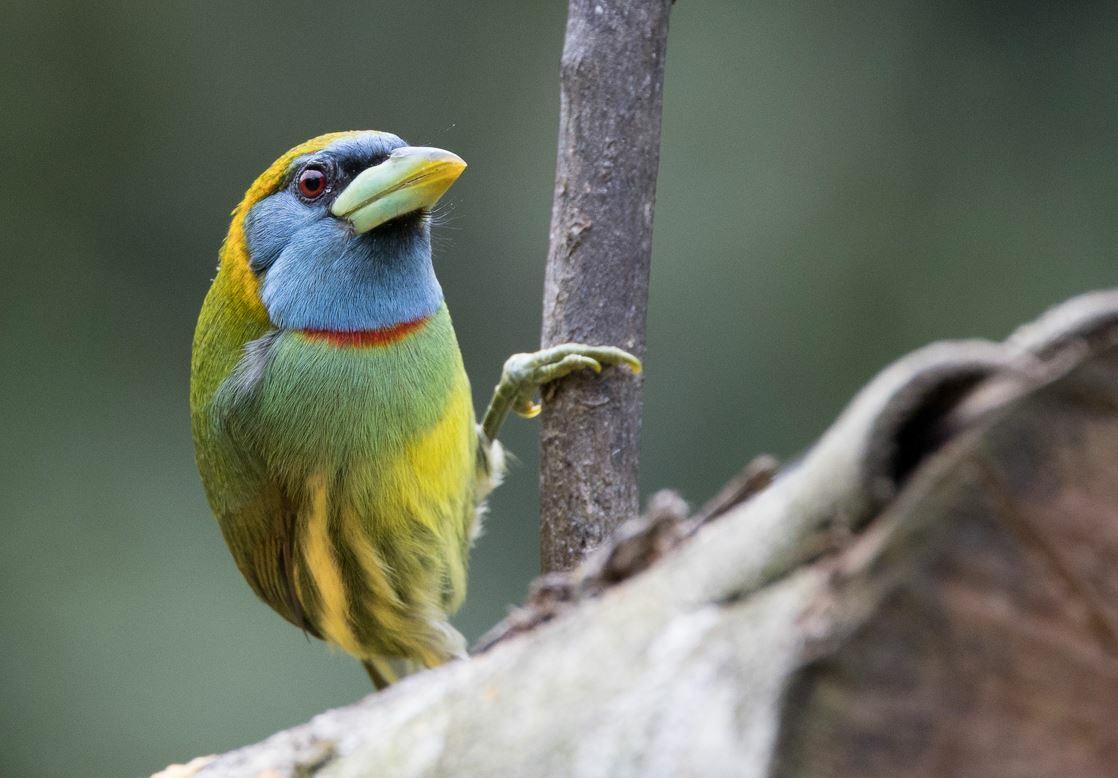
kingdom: Animalia
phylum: Chordata
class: Aves
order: Piciformes
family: Capitonidae
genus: Eubucco
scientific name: Eubucco versicolor
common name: Versicolored barbet
